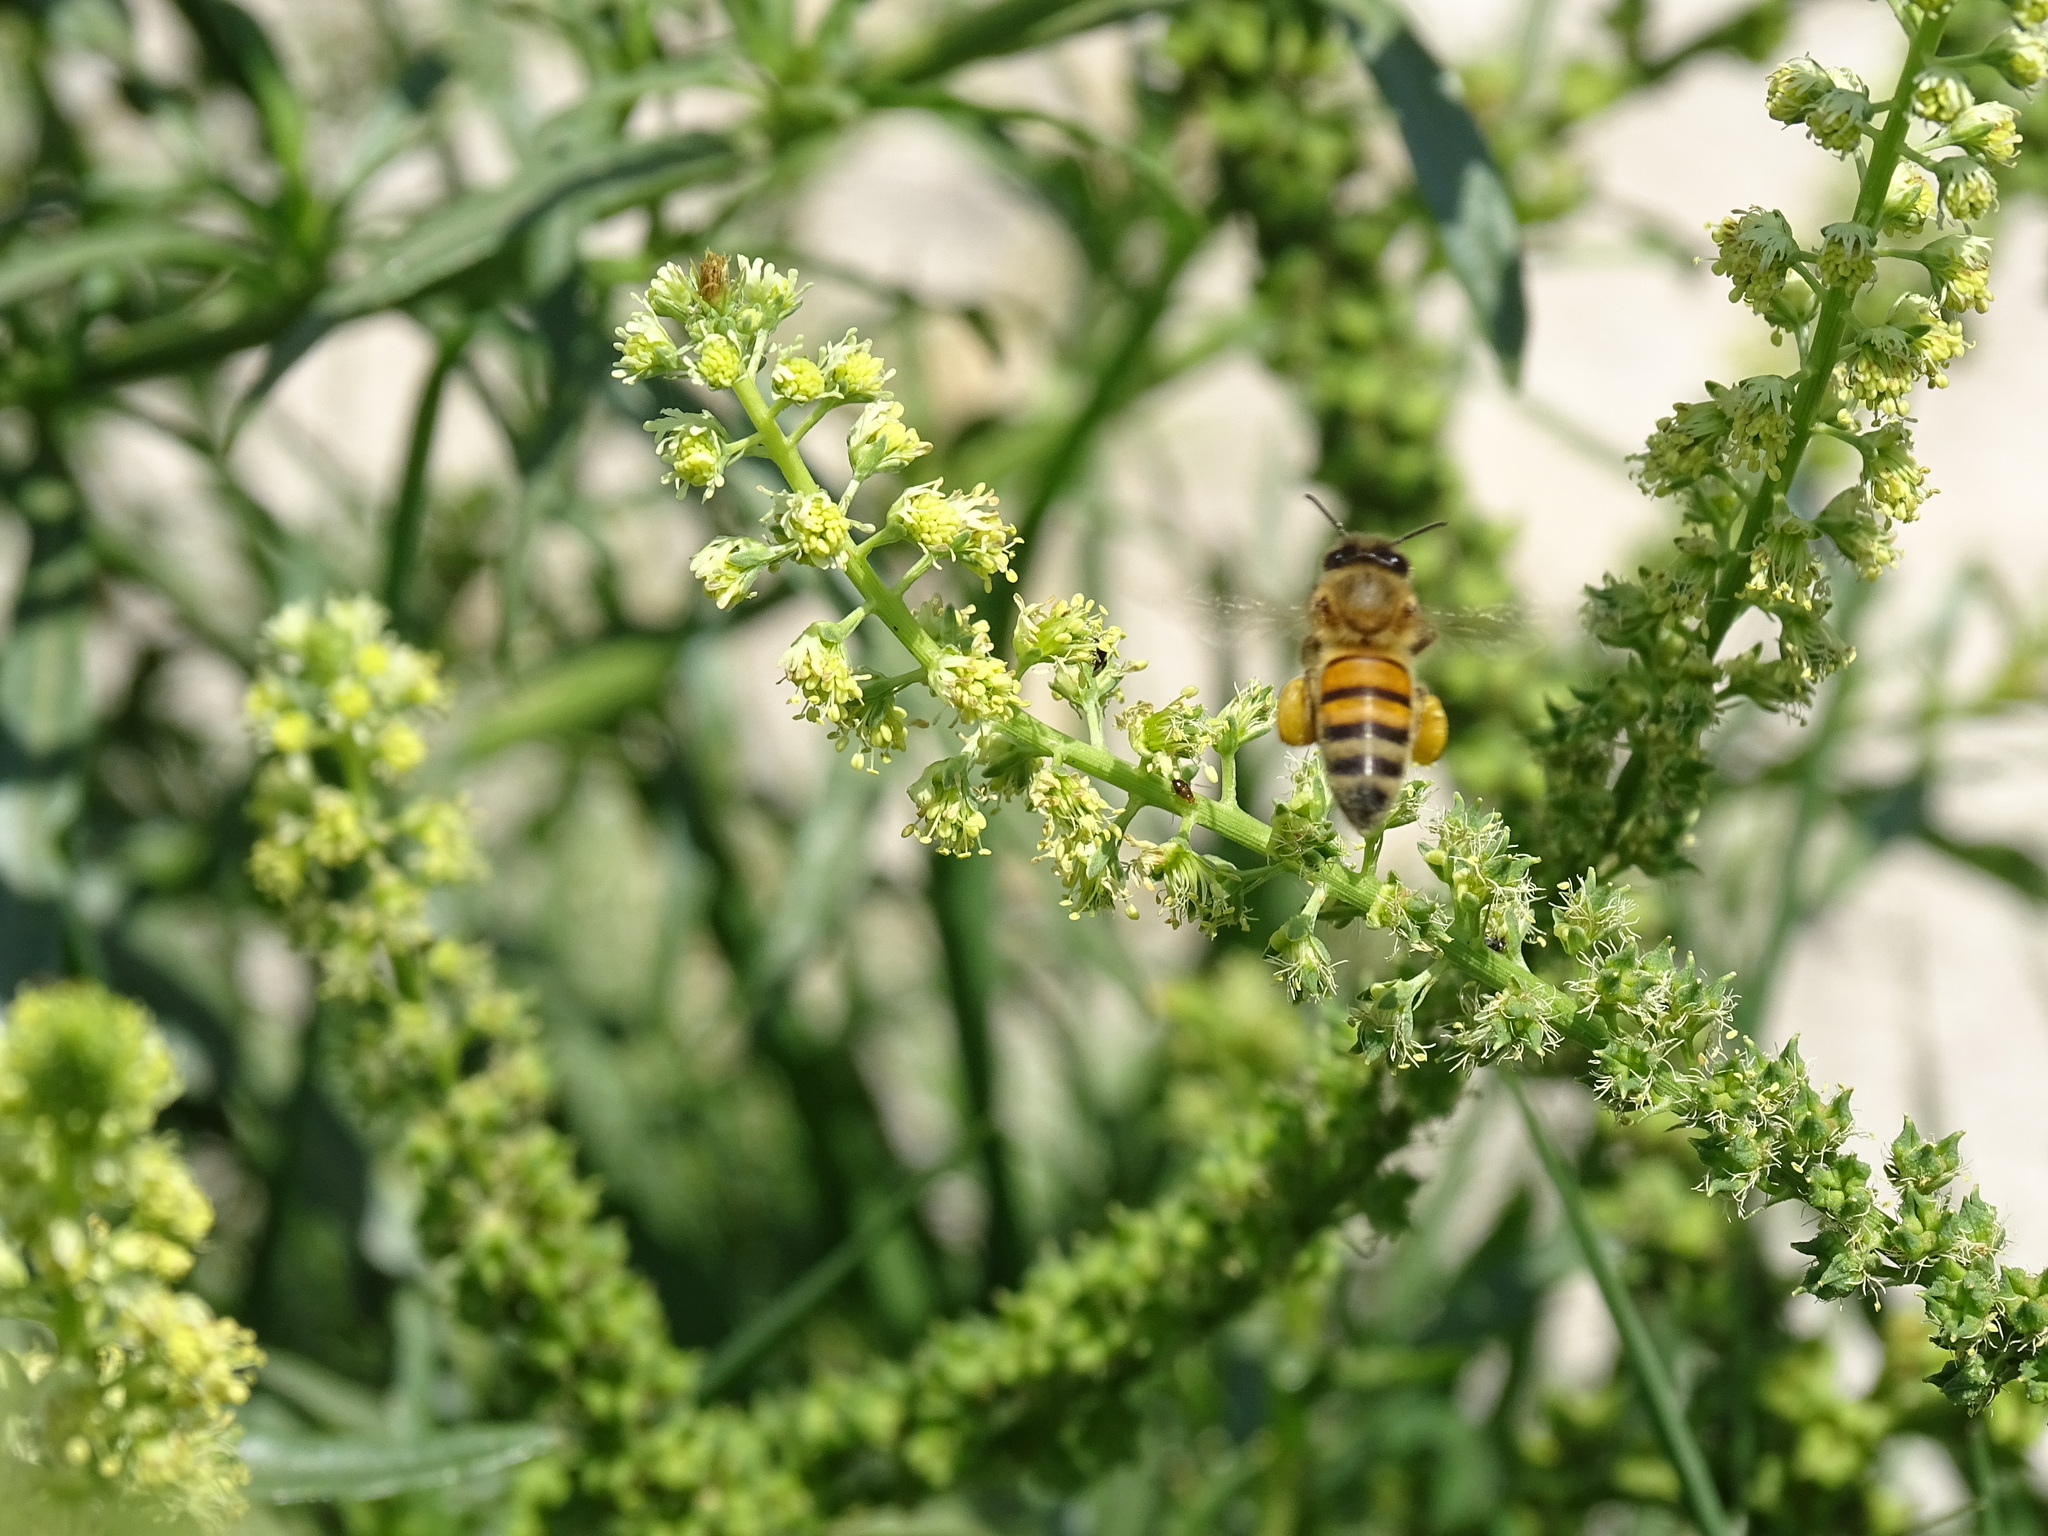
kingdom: Animalia
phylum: Arthropoda
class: Insecta
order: Hymenoptera
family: Apidae
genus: Apis
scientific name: Apis mellifera
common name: Honey bee
